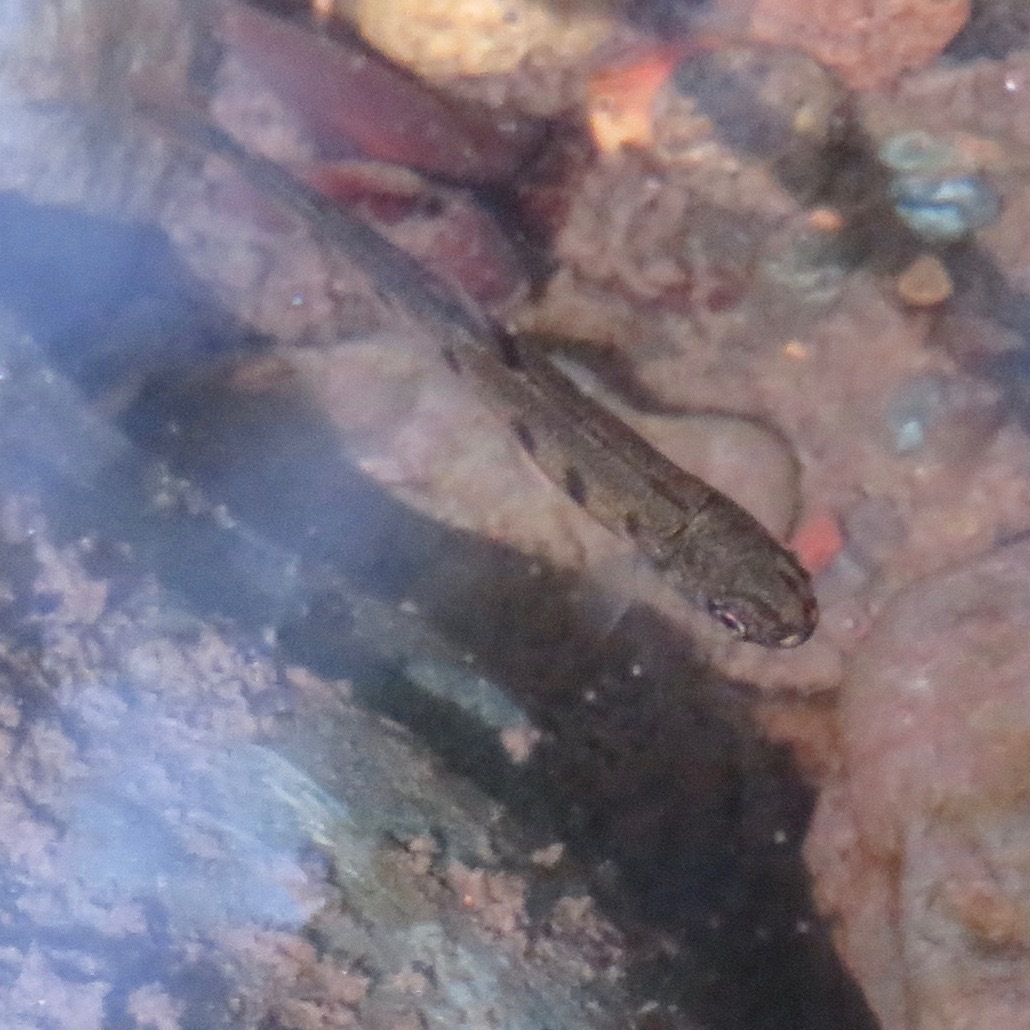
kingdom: Animalia
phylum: Chordata
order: Salmoniformes
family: Salmonidae
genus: Oncorhynchus
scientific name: Oncorhynchus mykiss
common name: Rainbow trout
